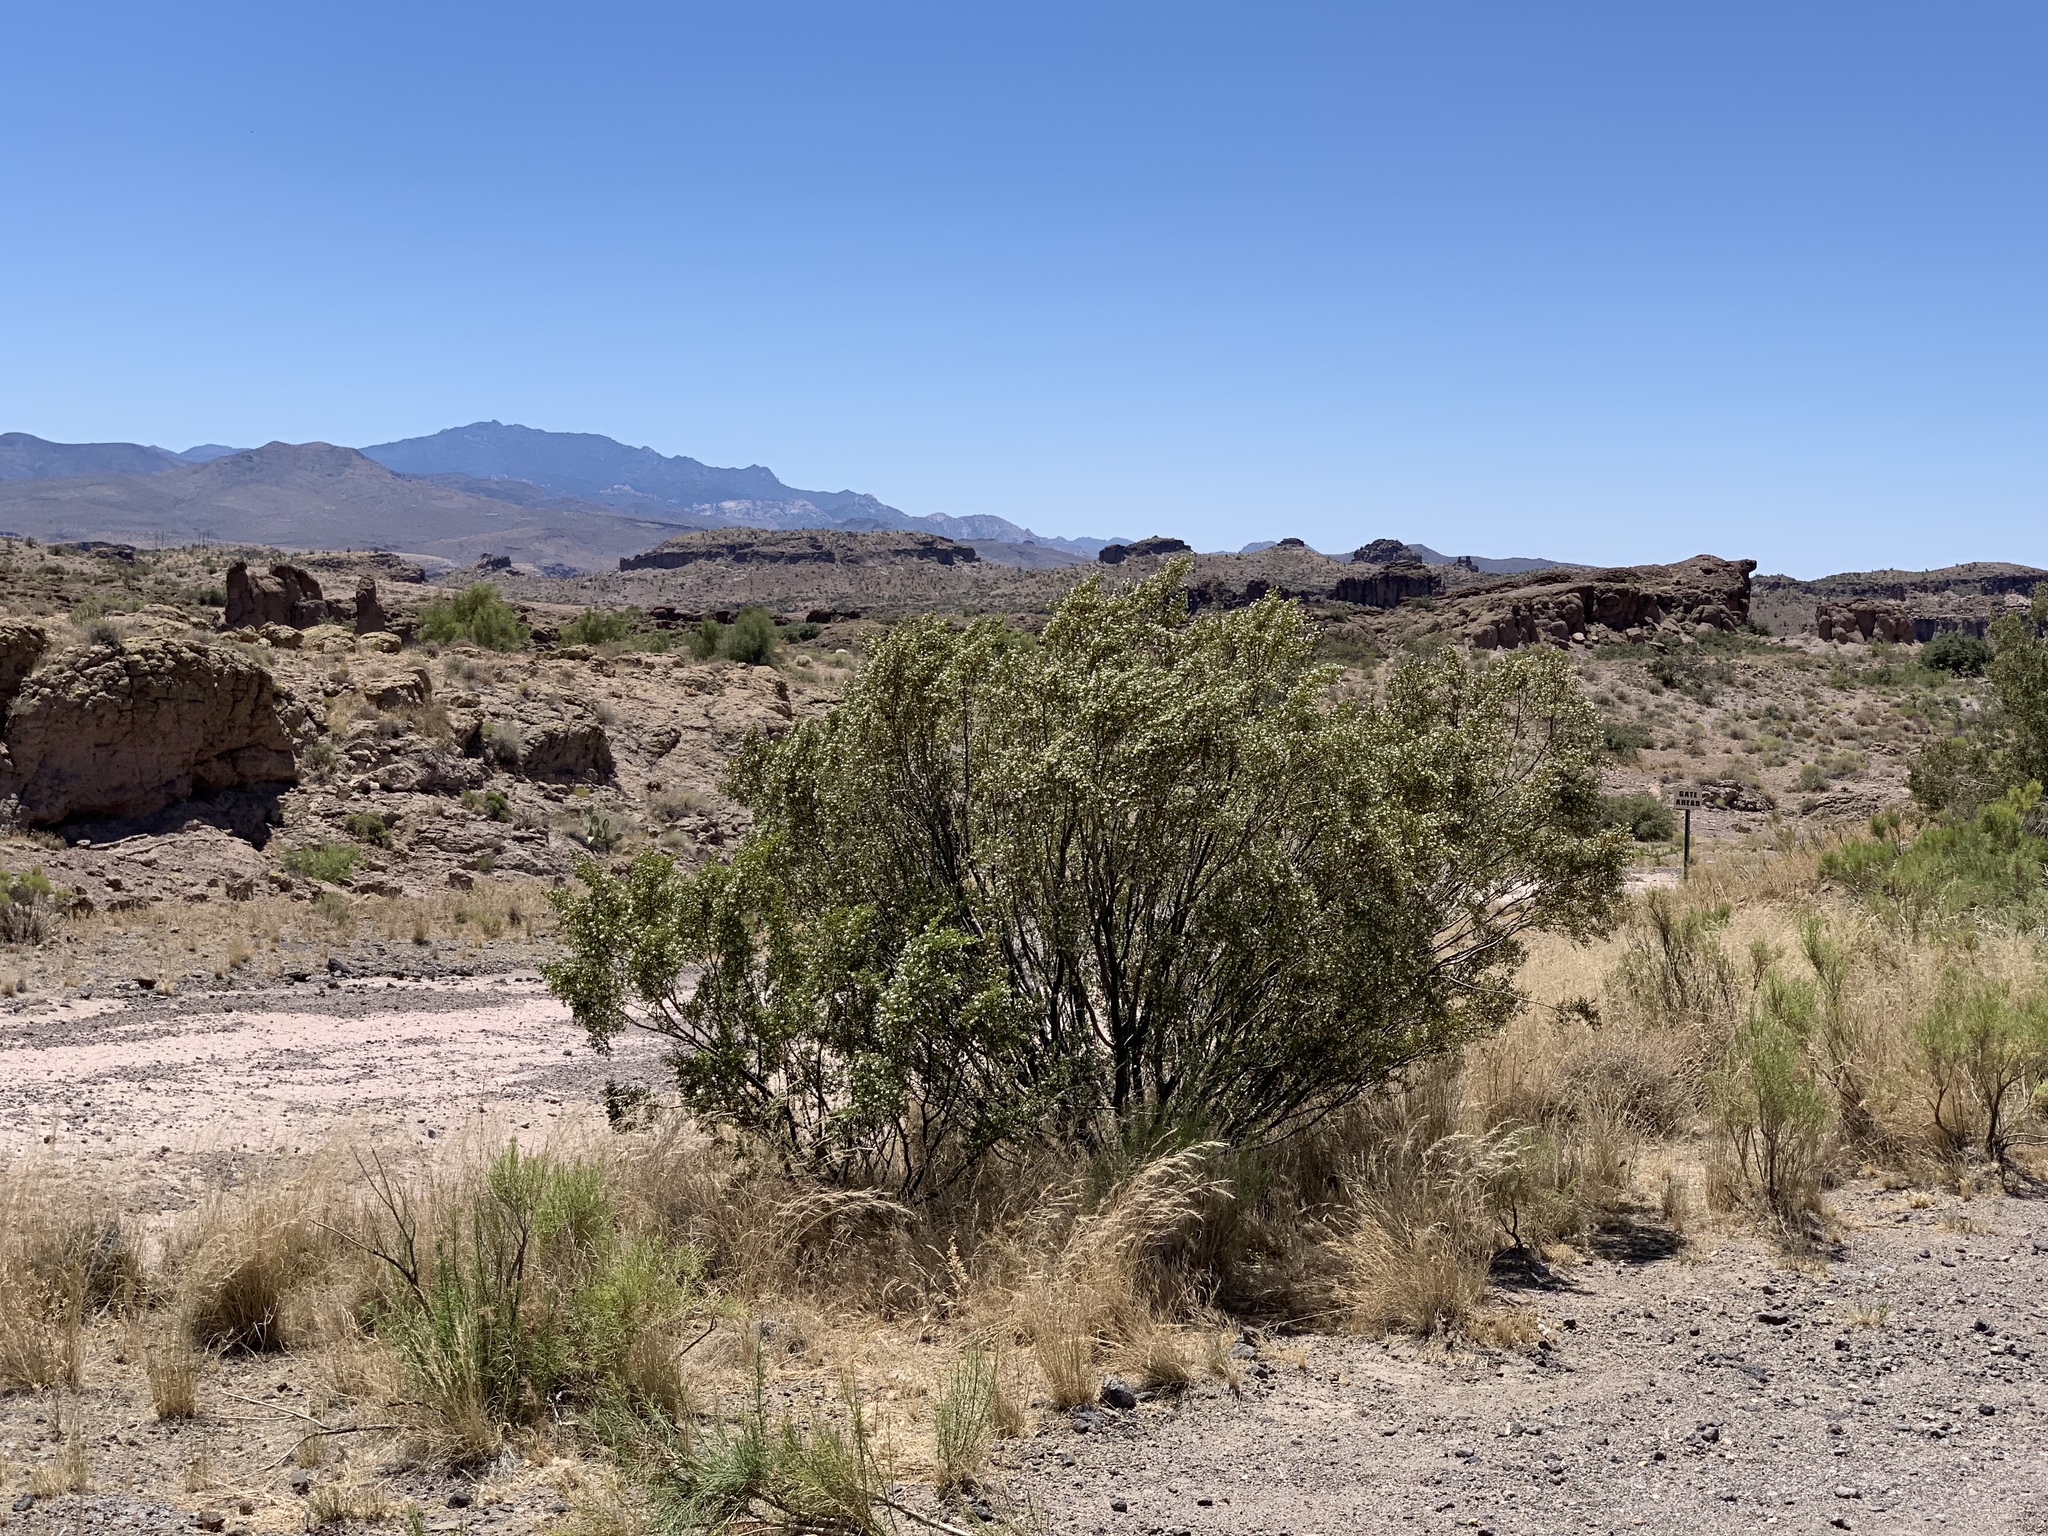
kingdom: Plantae
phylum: Tracheophyta
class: Magnoliopsida
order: Zygophyllales
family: Zygophyllaceae
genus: Larrea
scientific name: Larrea tridentata
